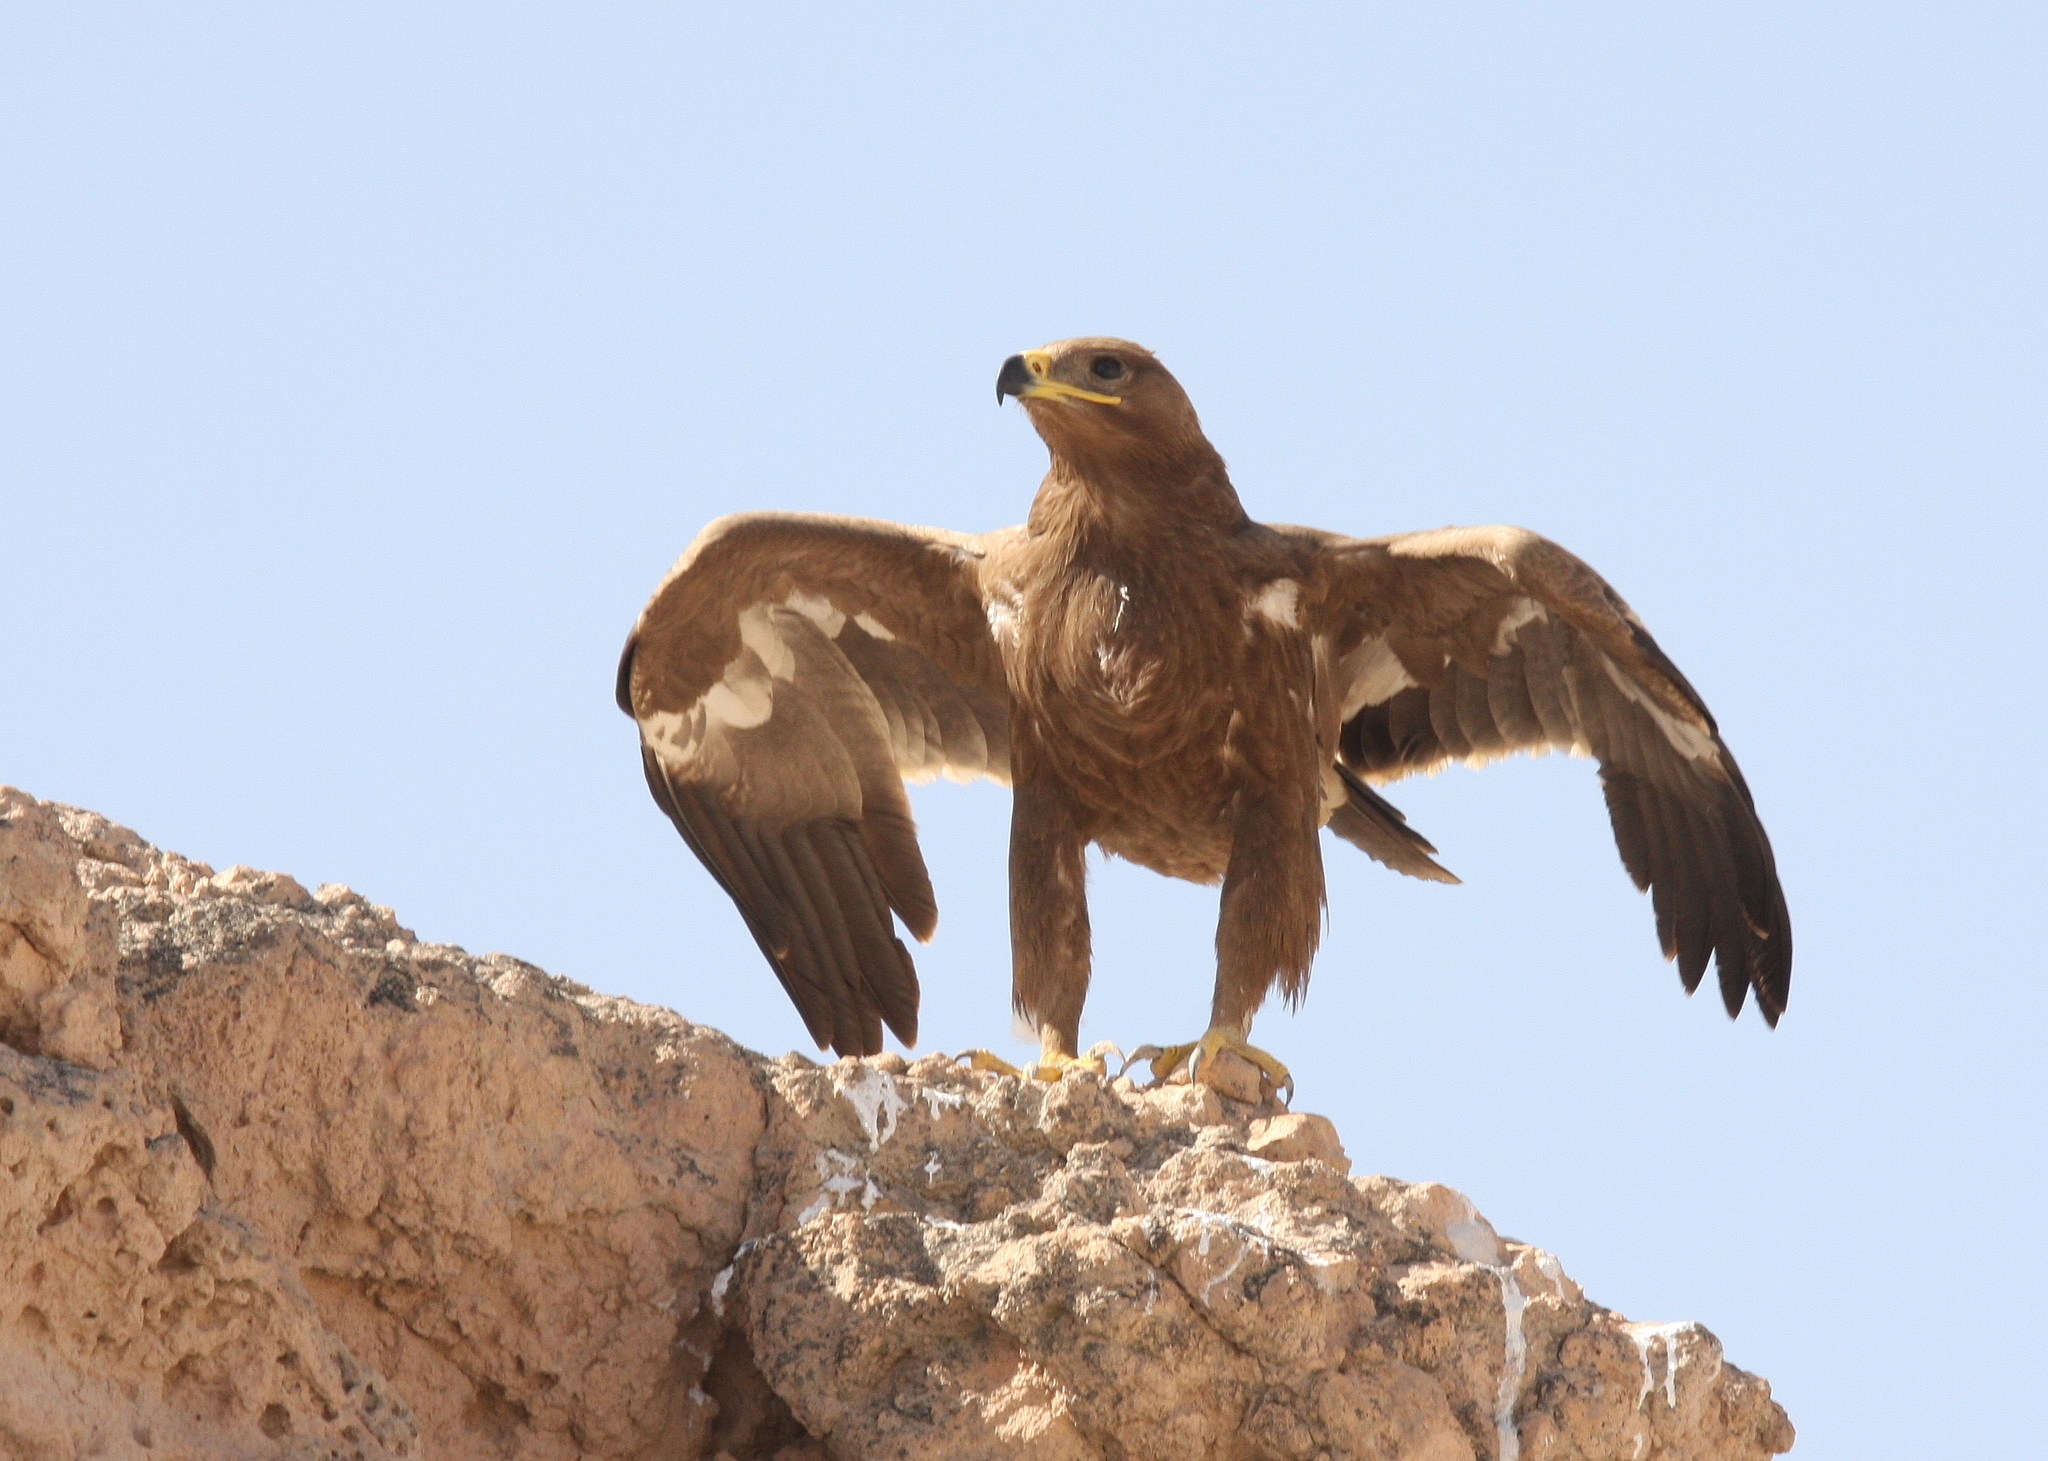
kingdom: Animalia
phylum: Chordata
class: Aves
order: Accipitriformes
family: Accipitridae
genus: Aquila
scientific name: Aquila nipalensis
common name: Steppe eagle
